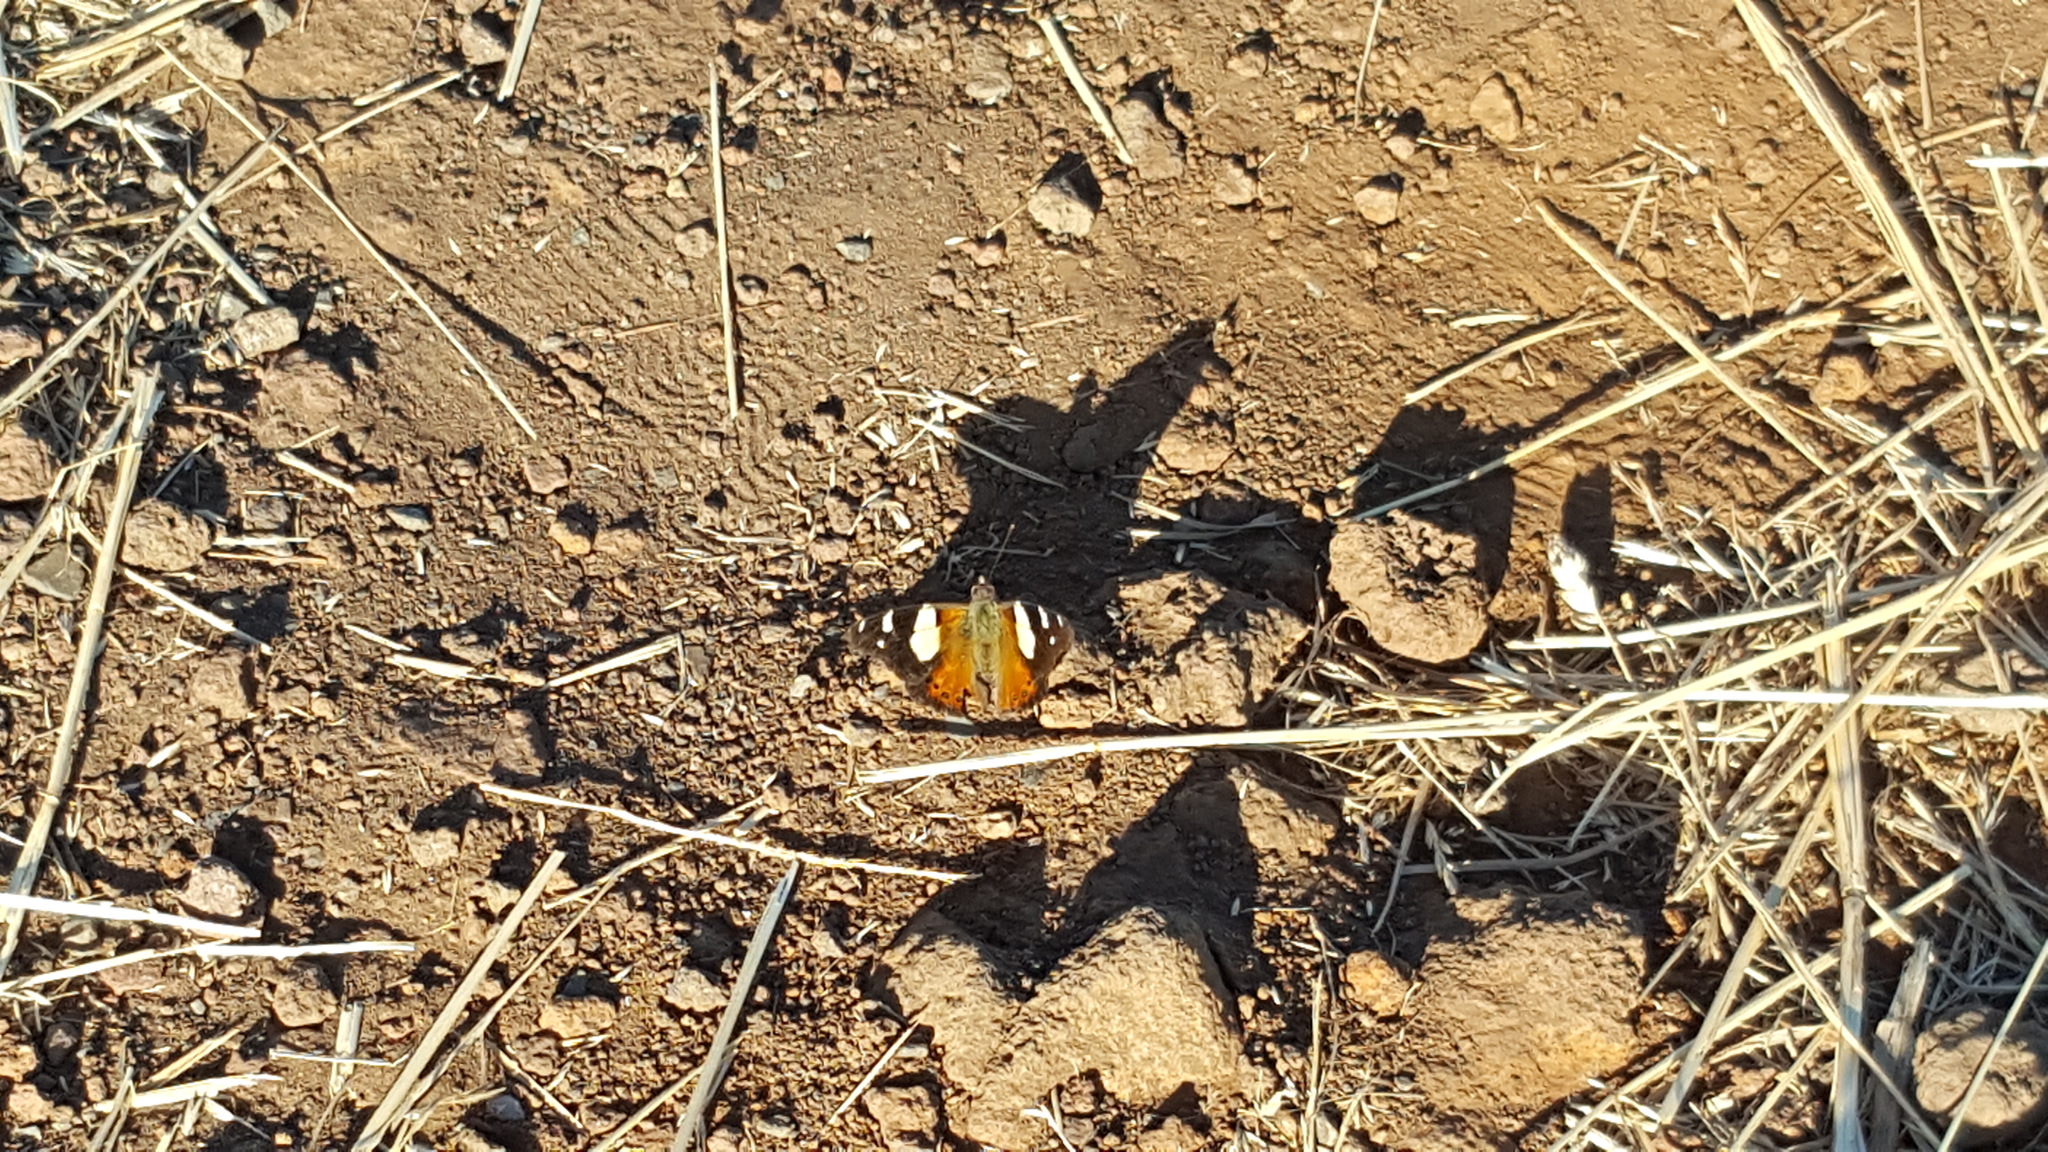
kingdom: Animalia
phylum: Arthropoda
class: Insecta
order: Lepidoptera
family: Nymphalidae
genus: Vanessa
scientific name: Vanessa itea
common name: Yellow admiral
